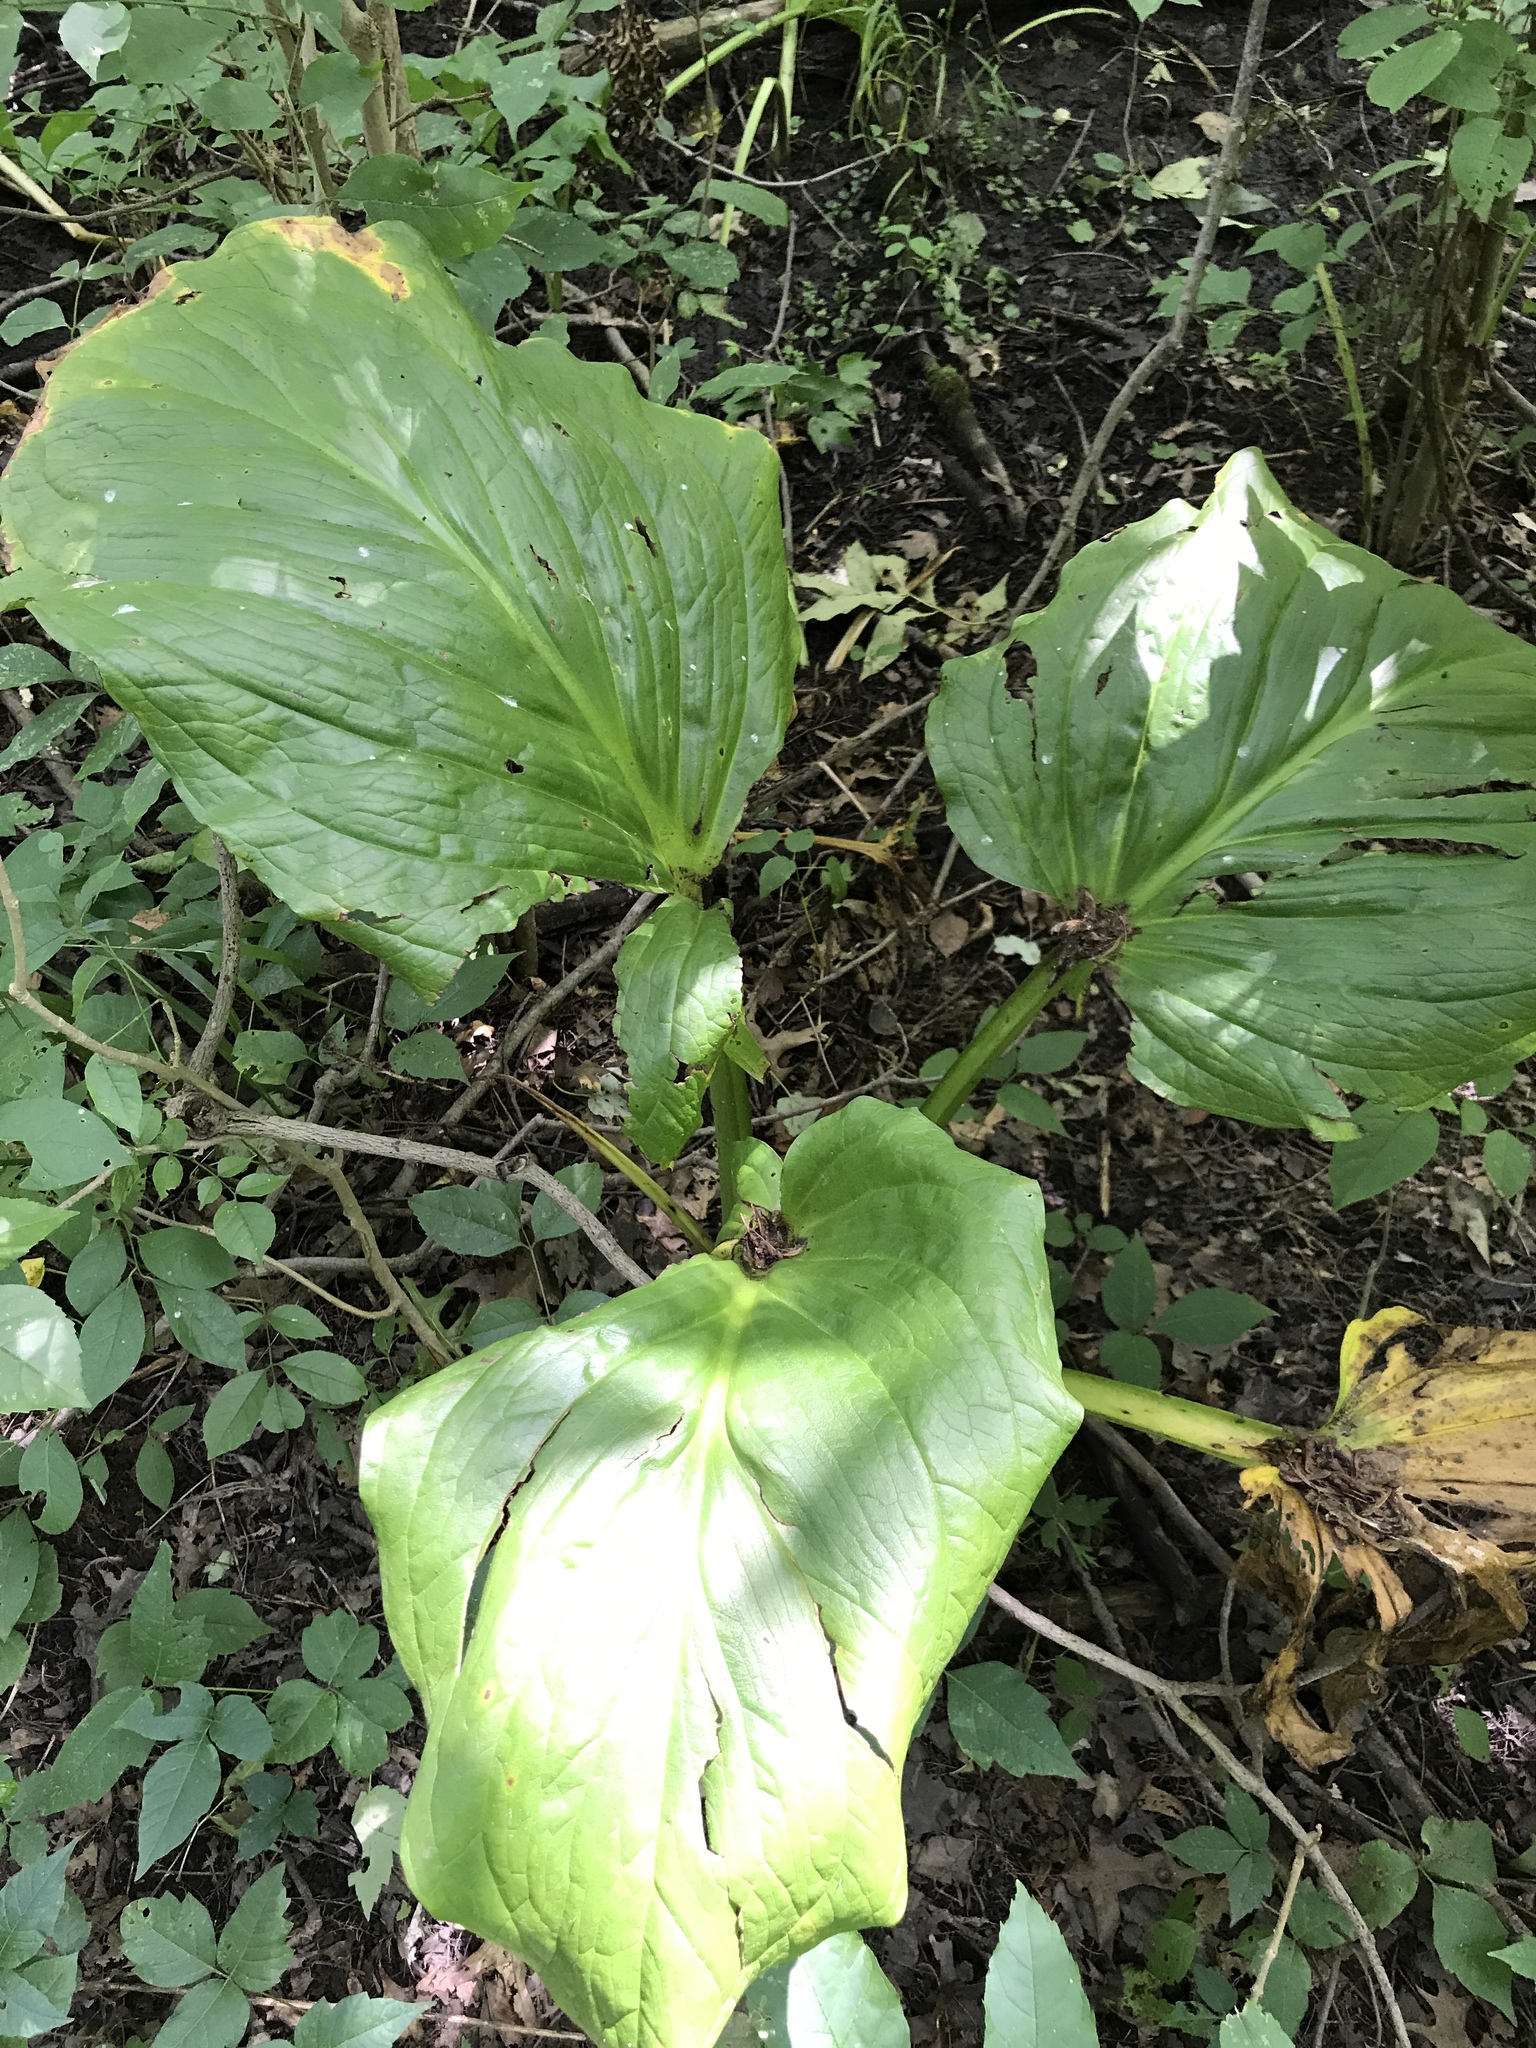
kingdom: Plantae
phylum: Tracheophyta
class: Liliopsida
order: Alismatales
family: Araceae
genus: Symplocarpus
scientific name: Symplocarpus foetidus
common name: Eastern skunk cabbage
